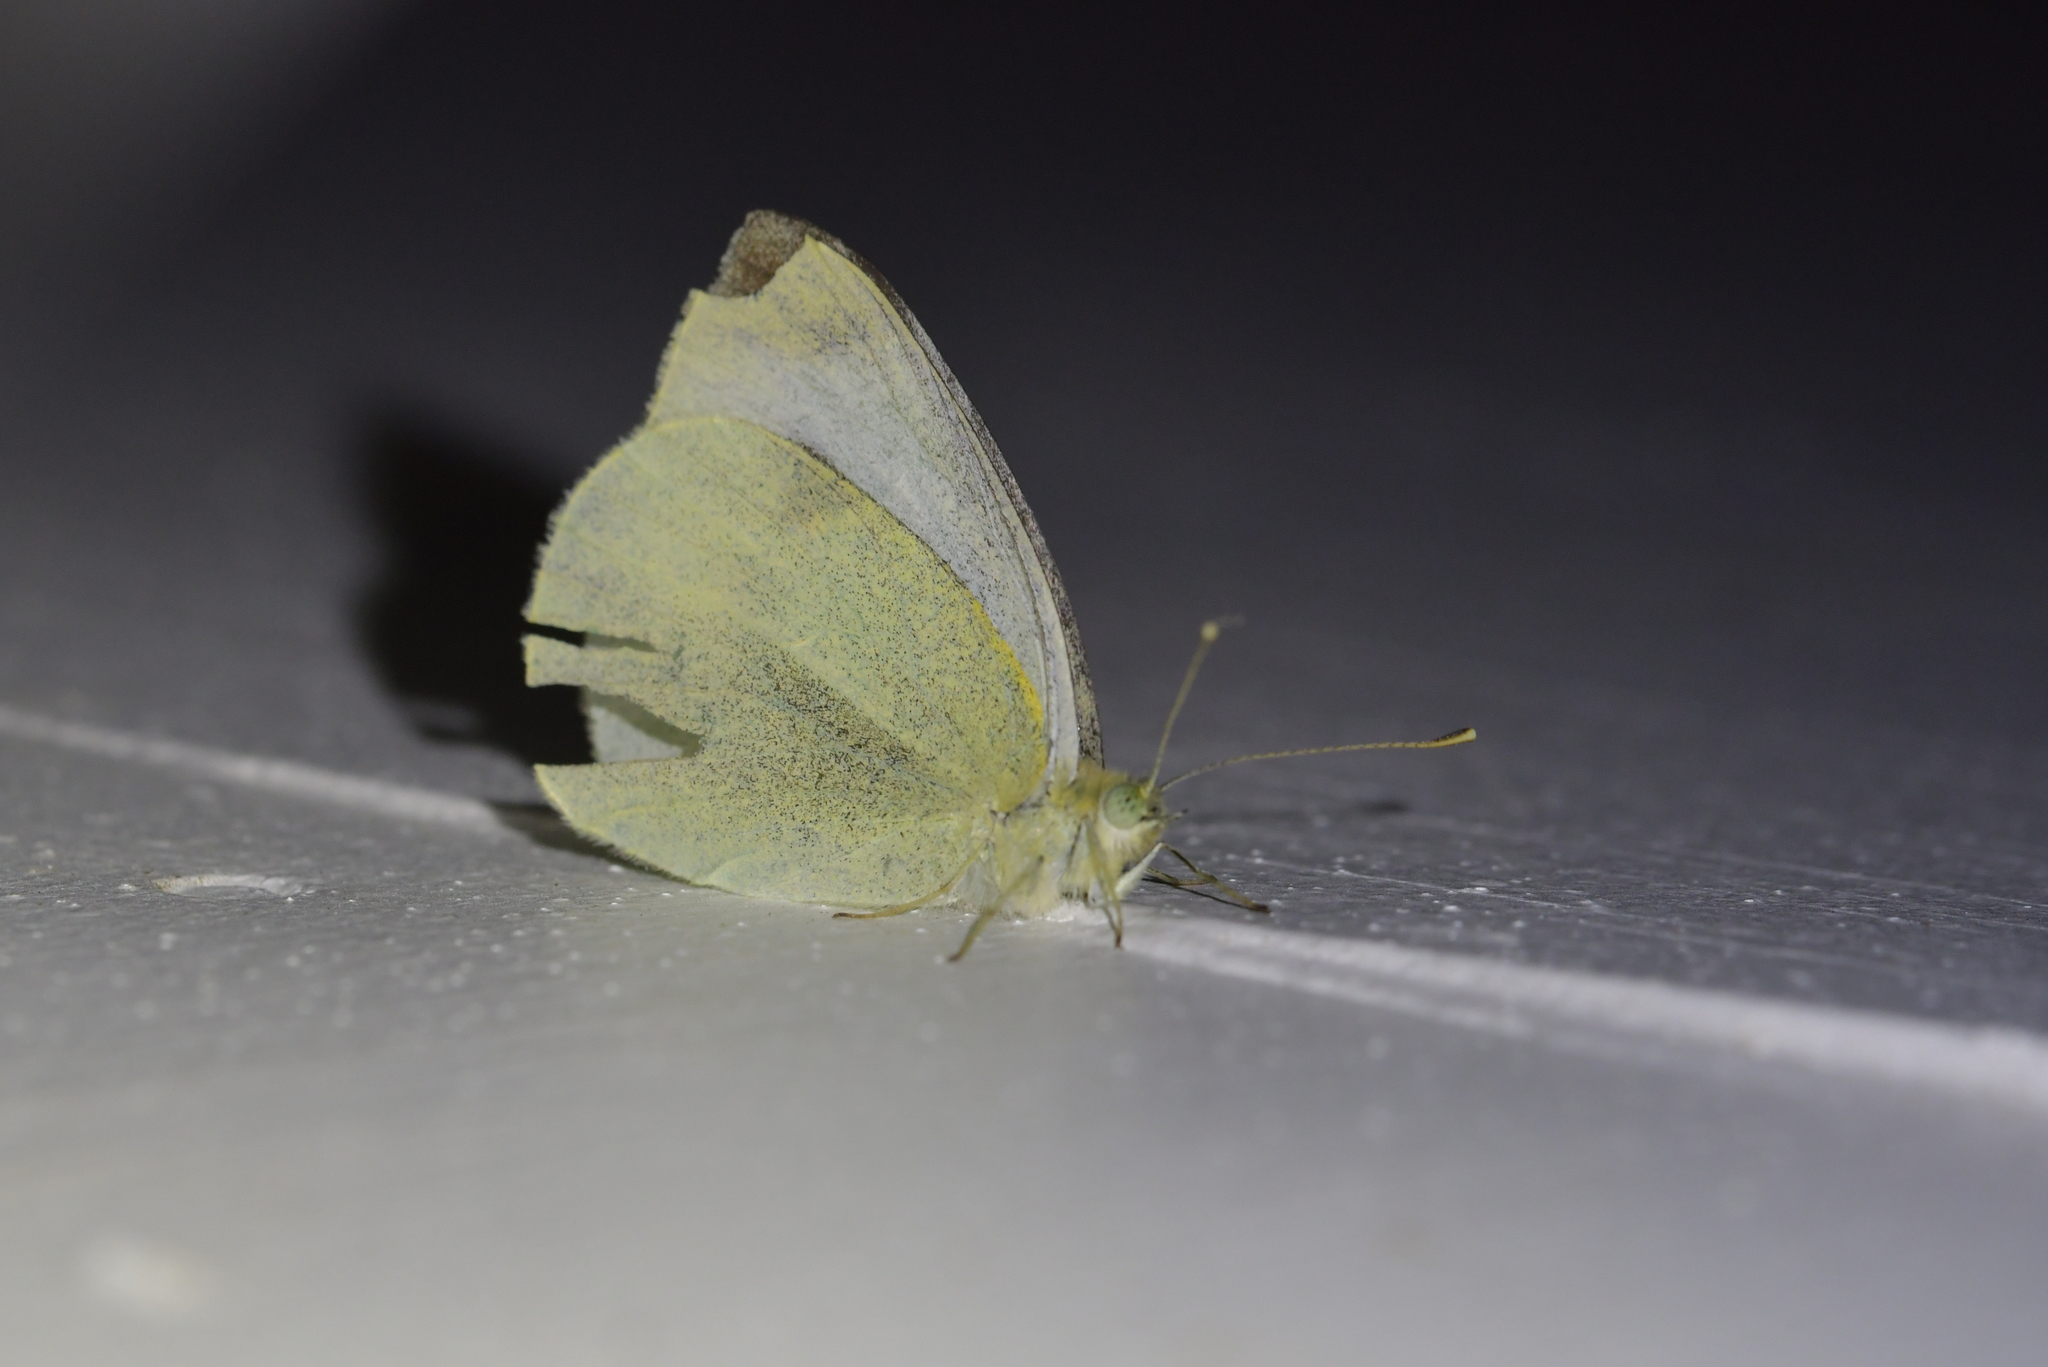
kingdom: Animalia
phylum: Arthropoda
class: Insecta
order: Lepidoptera
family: Pieridae
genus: Pieris
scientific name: Pieris rapae
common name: Small white
